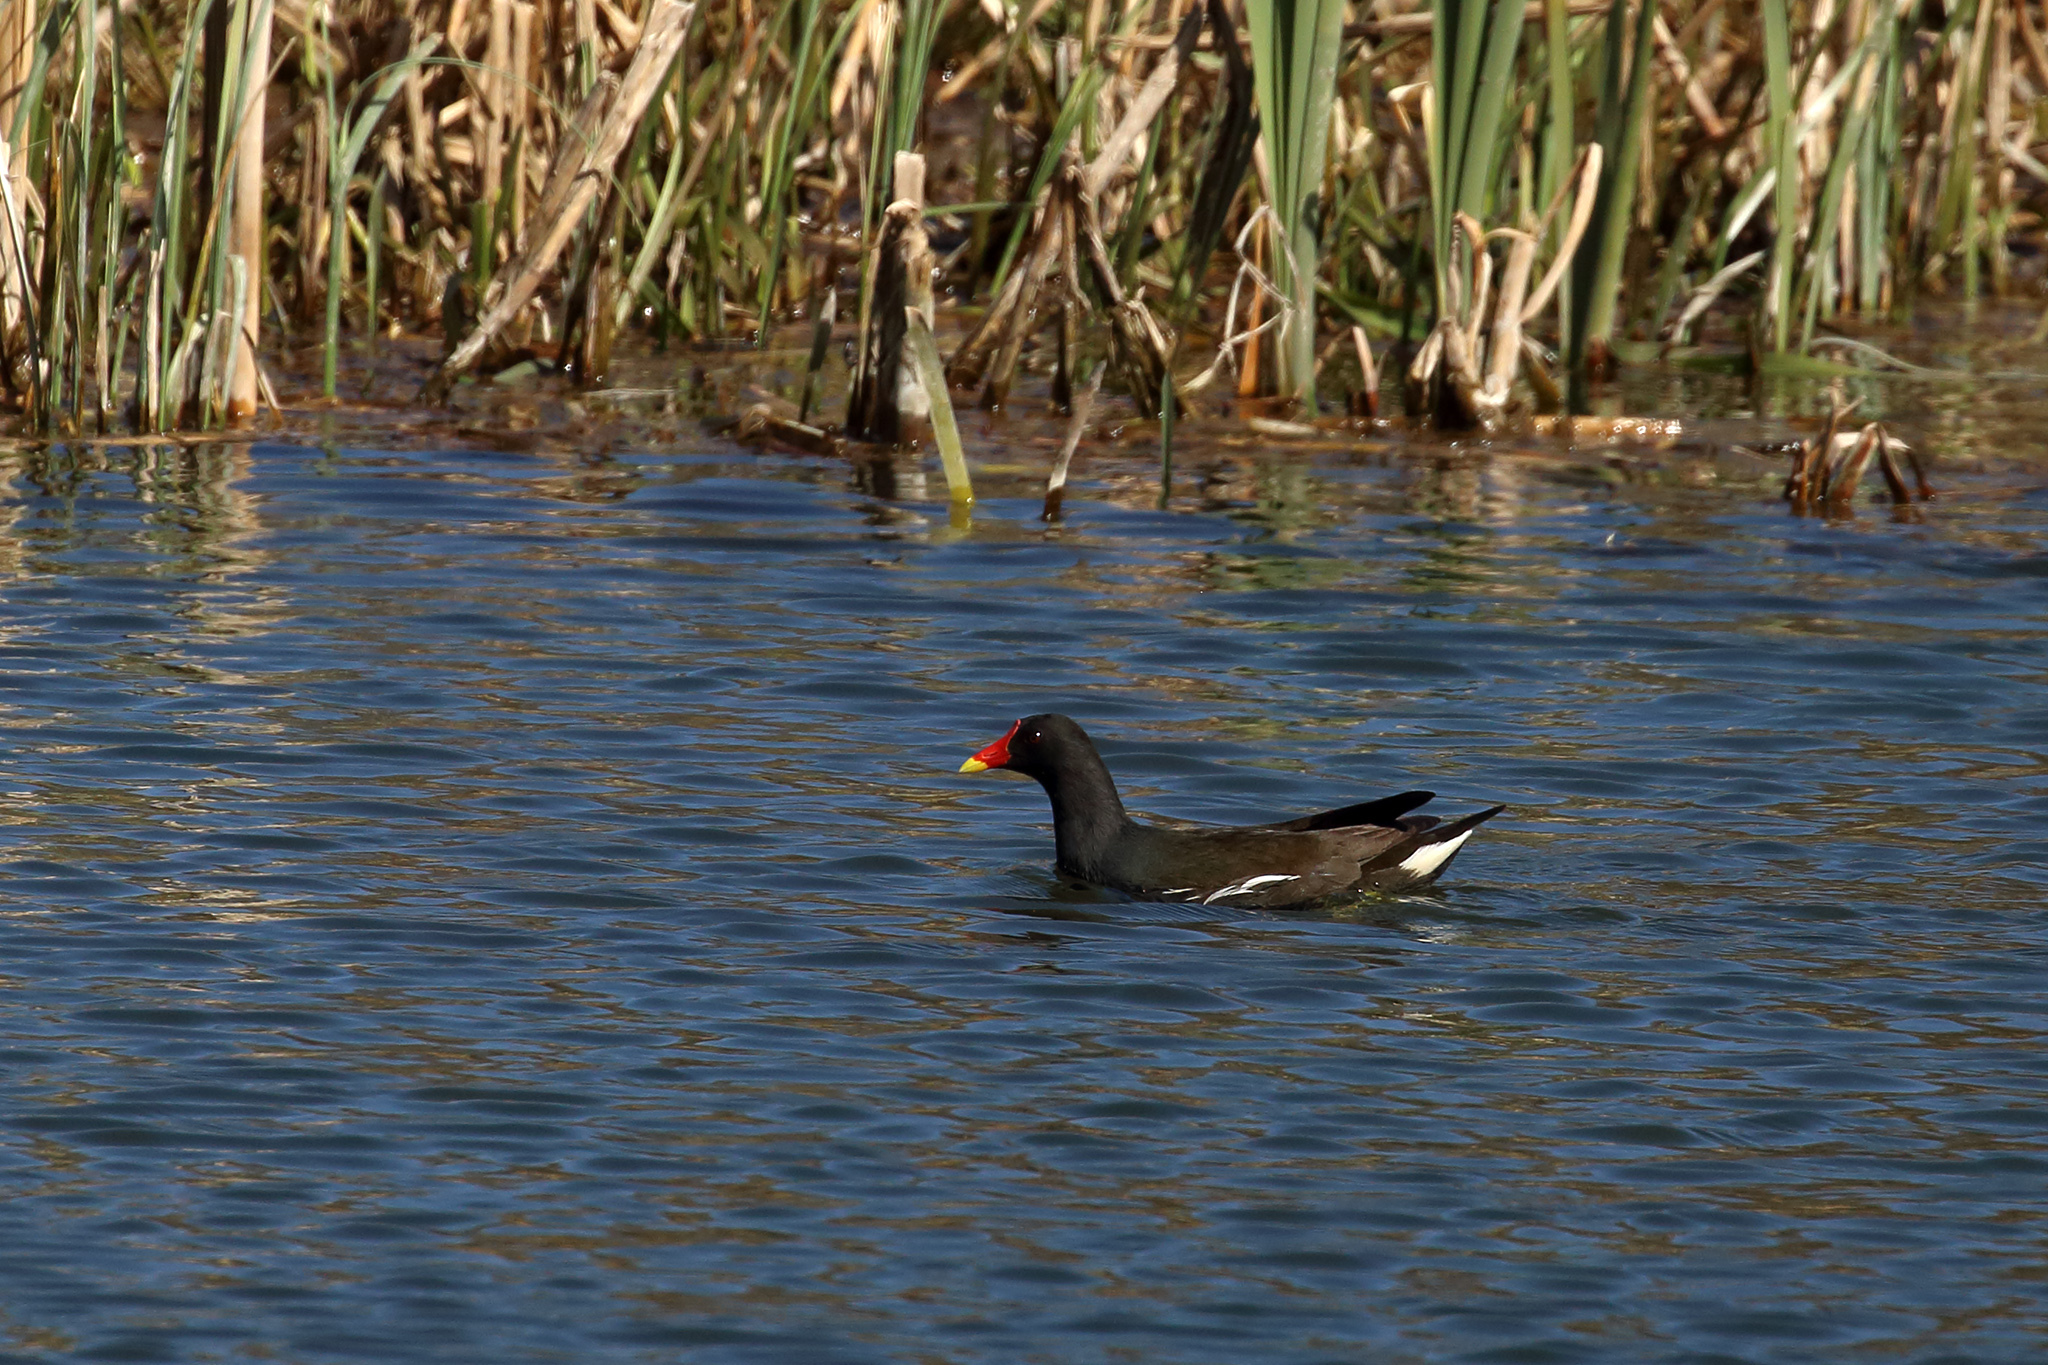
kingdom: Animalia
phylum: Chordata
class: Aves
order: Gruiformes
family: Rallidae
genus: Gallinula
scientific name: Gallinula chloropus
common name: Common moorhen
